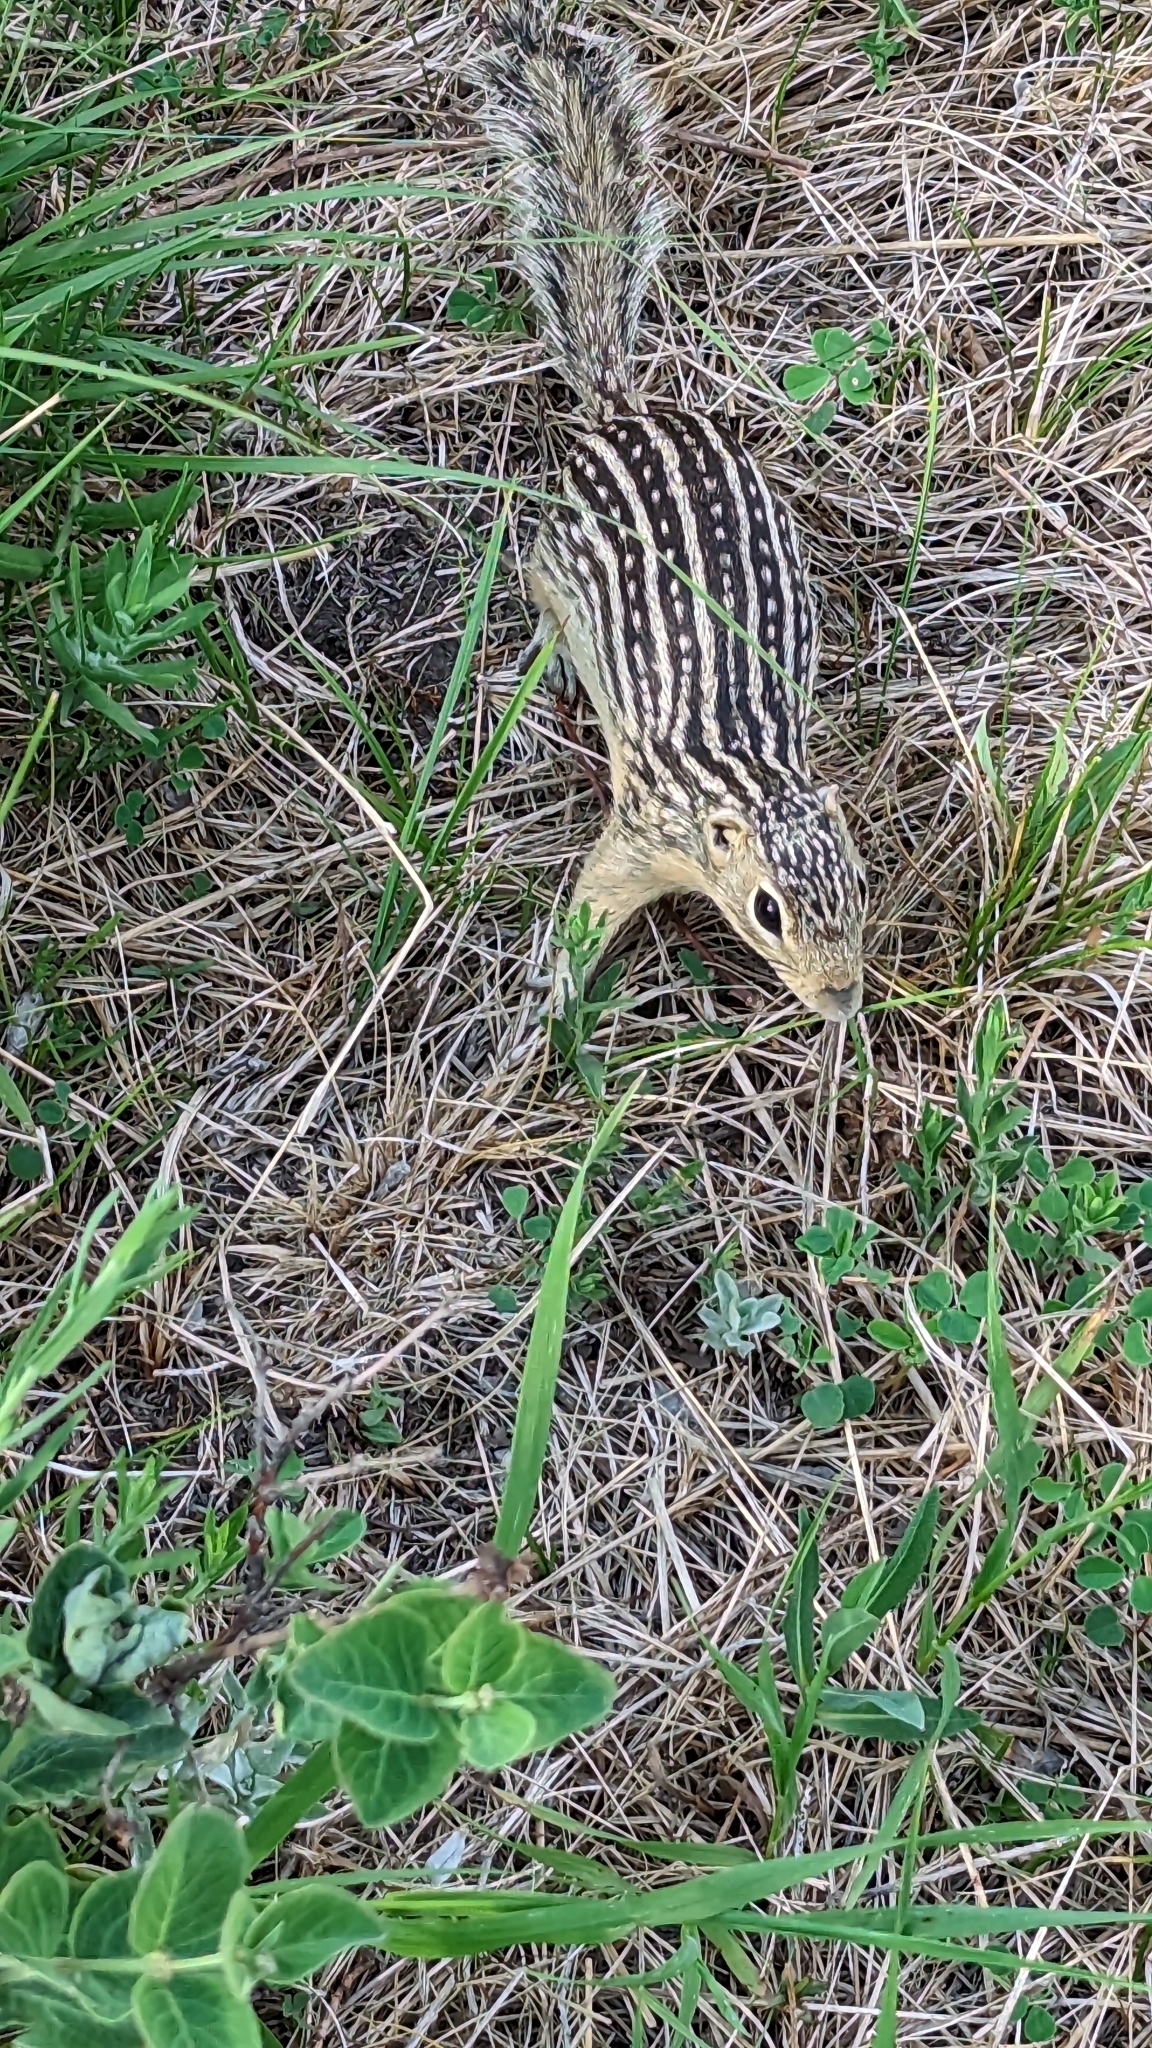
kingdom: Animalia
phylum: Chordata
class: Mammalia
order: Rodentia
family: Sciuridae
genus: Ictidomys
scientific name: Ictidomys tridecemlineatus
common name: Thirteen-lined ground squirrel
